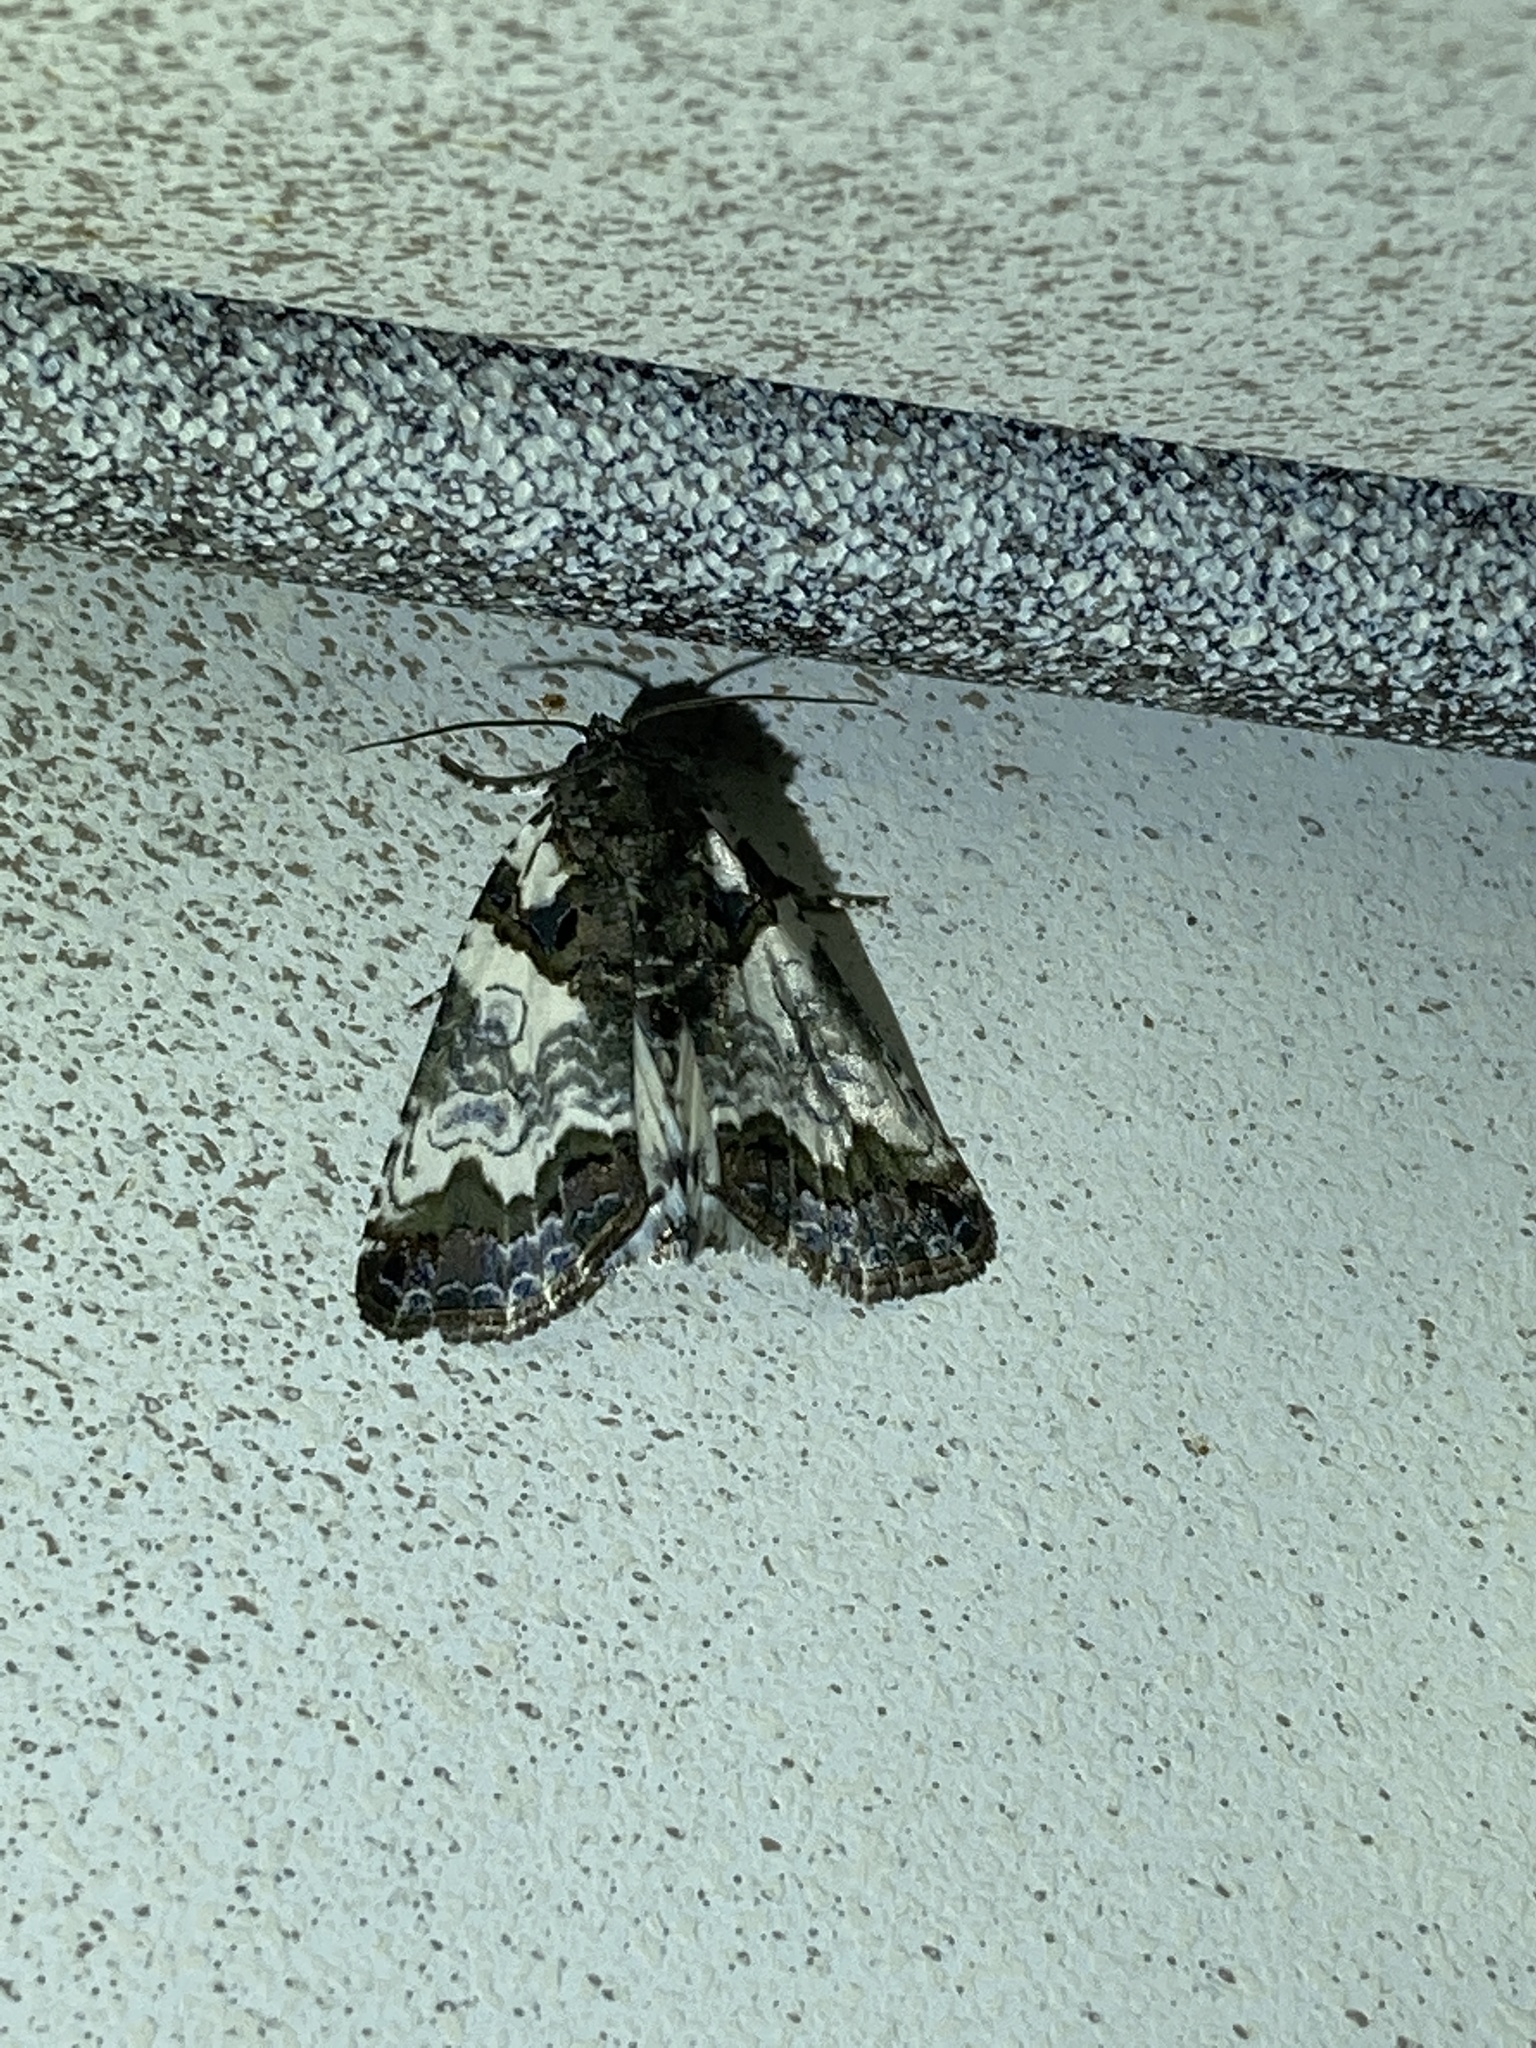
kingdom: Animalia
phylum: Arthropoda
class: Insecta
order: Lepidoptera
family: Noctuidae
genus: Cerma
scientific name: Cerma cerintha
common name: Tufted bird-dropping moth
